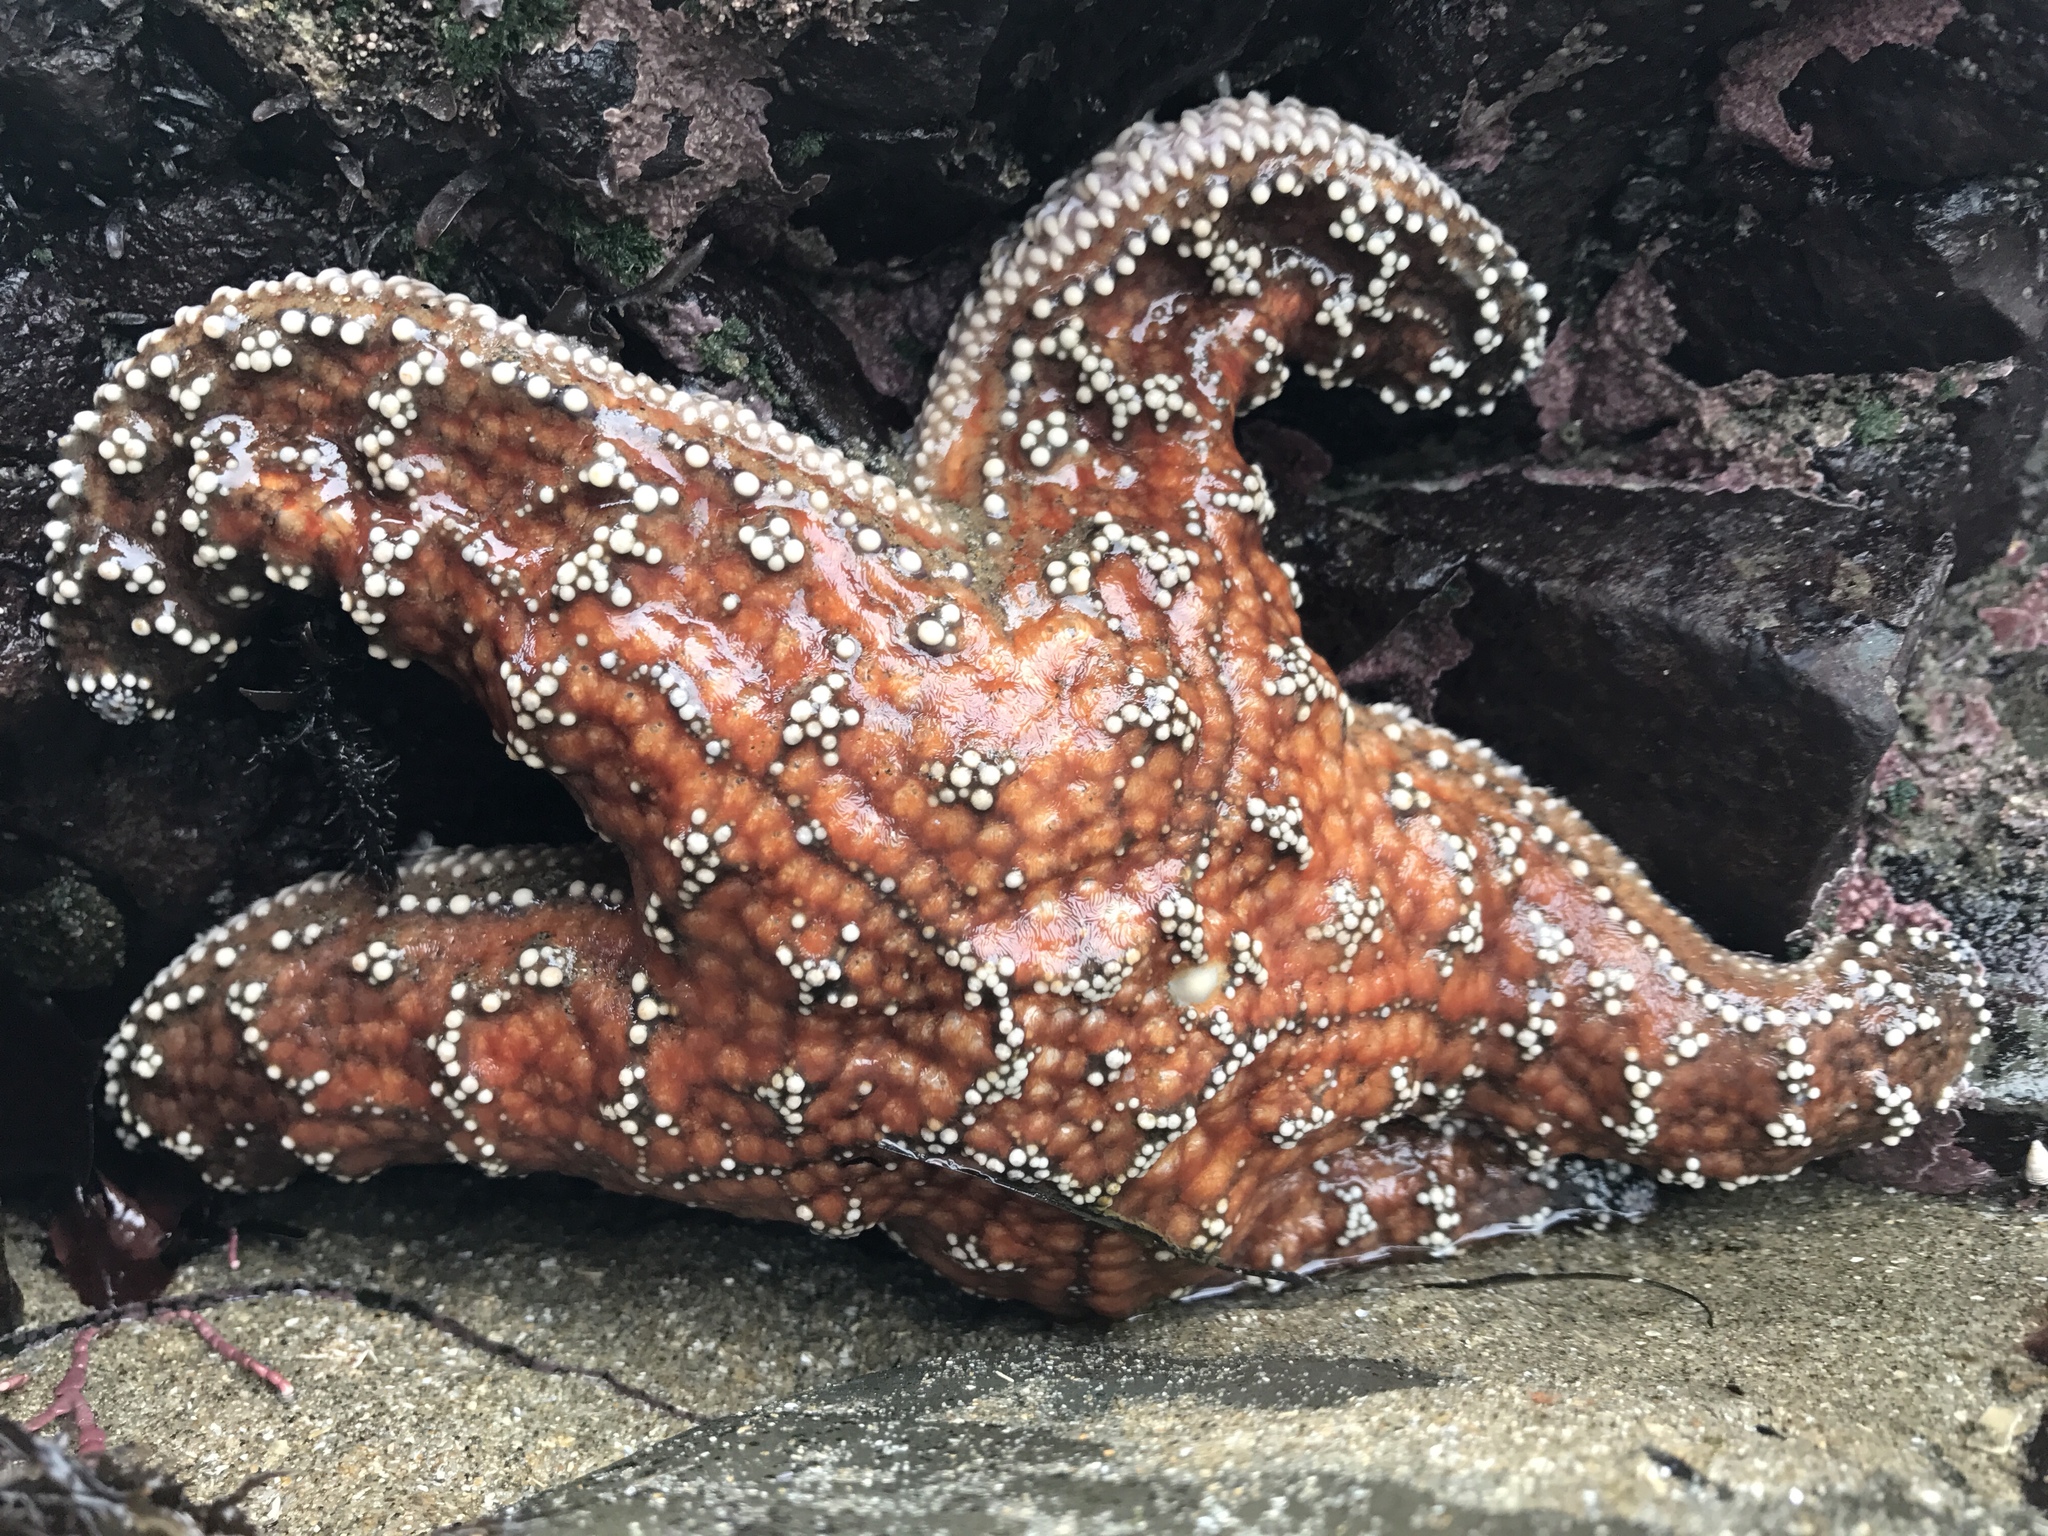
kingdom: Animalia
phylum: Echinodermata
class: Asteroidea
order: Forcipulatida
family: Asteriidae
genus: Pisaster
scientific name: Pisaster ochraceus
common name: Ochre stars
